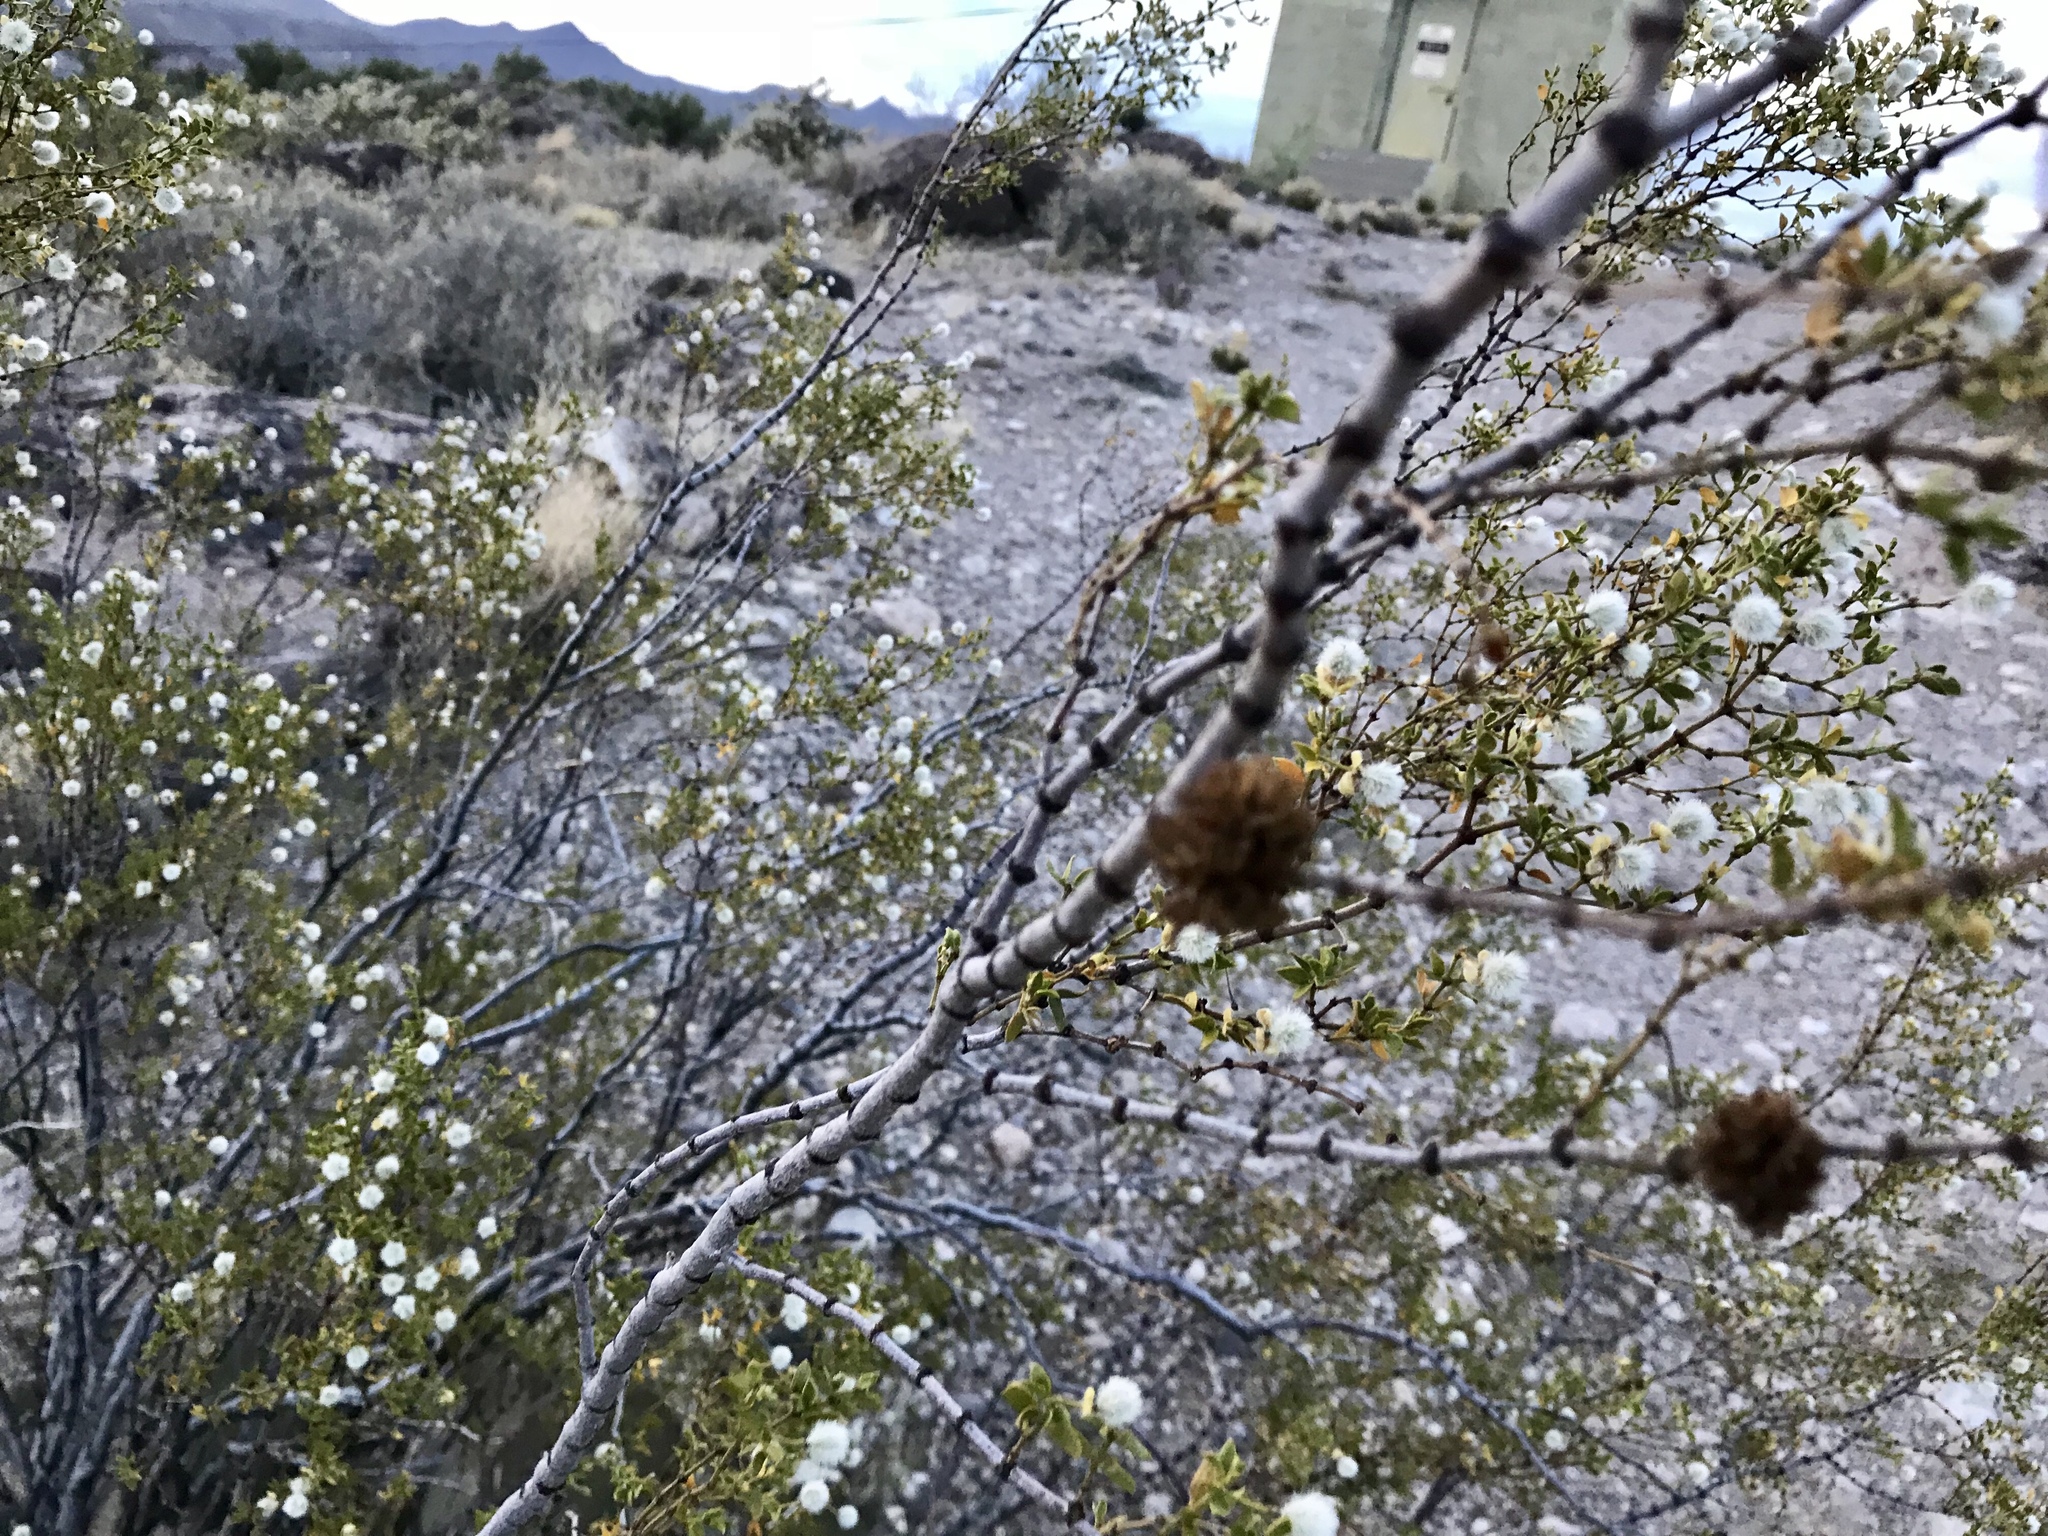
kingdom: Animalia
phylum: Arthropoda
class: Insecta
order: Diptera
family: Cecidomyiidae
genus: Asphondylia
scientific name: Asphondylia auripila
